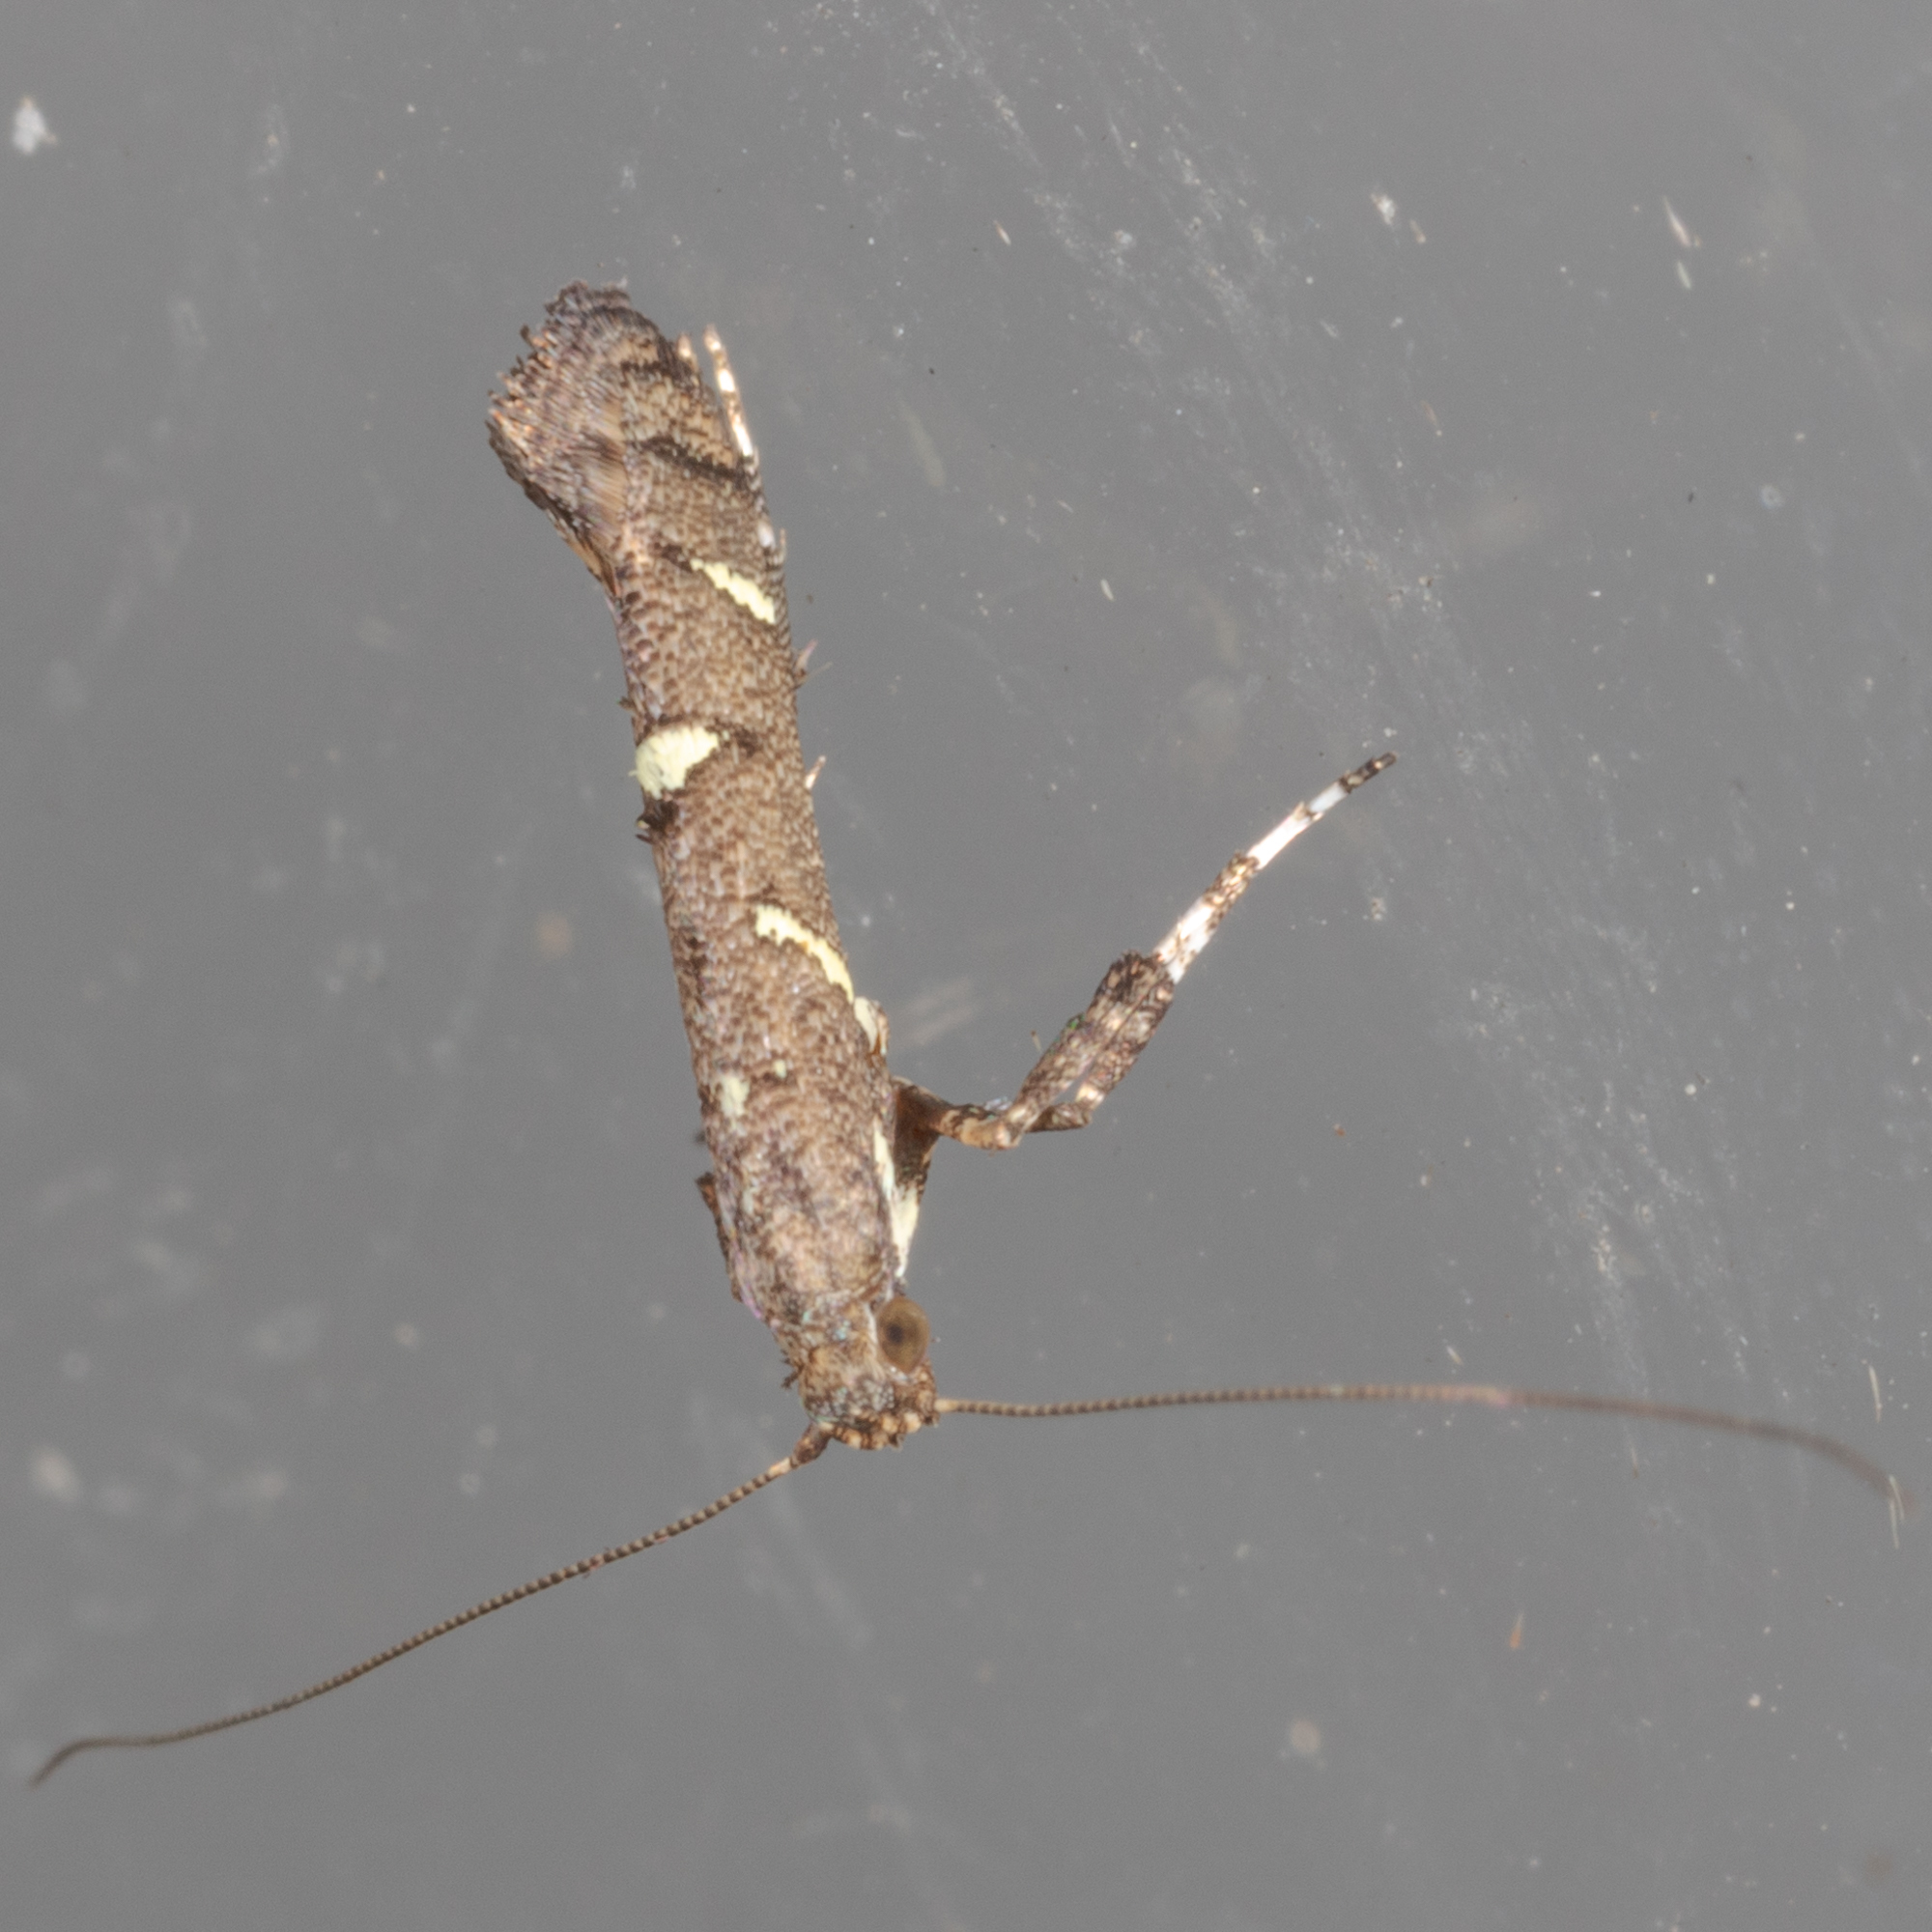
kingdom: Animalia
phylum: Arthropoda
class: Insecta
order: Lepidoptera
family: Gracillariidae
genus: Caloptilia
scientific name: Caloptilia triadicae
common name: Tallow leaf roller
